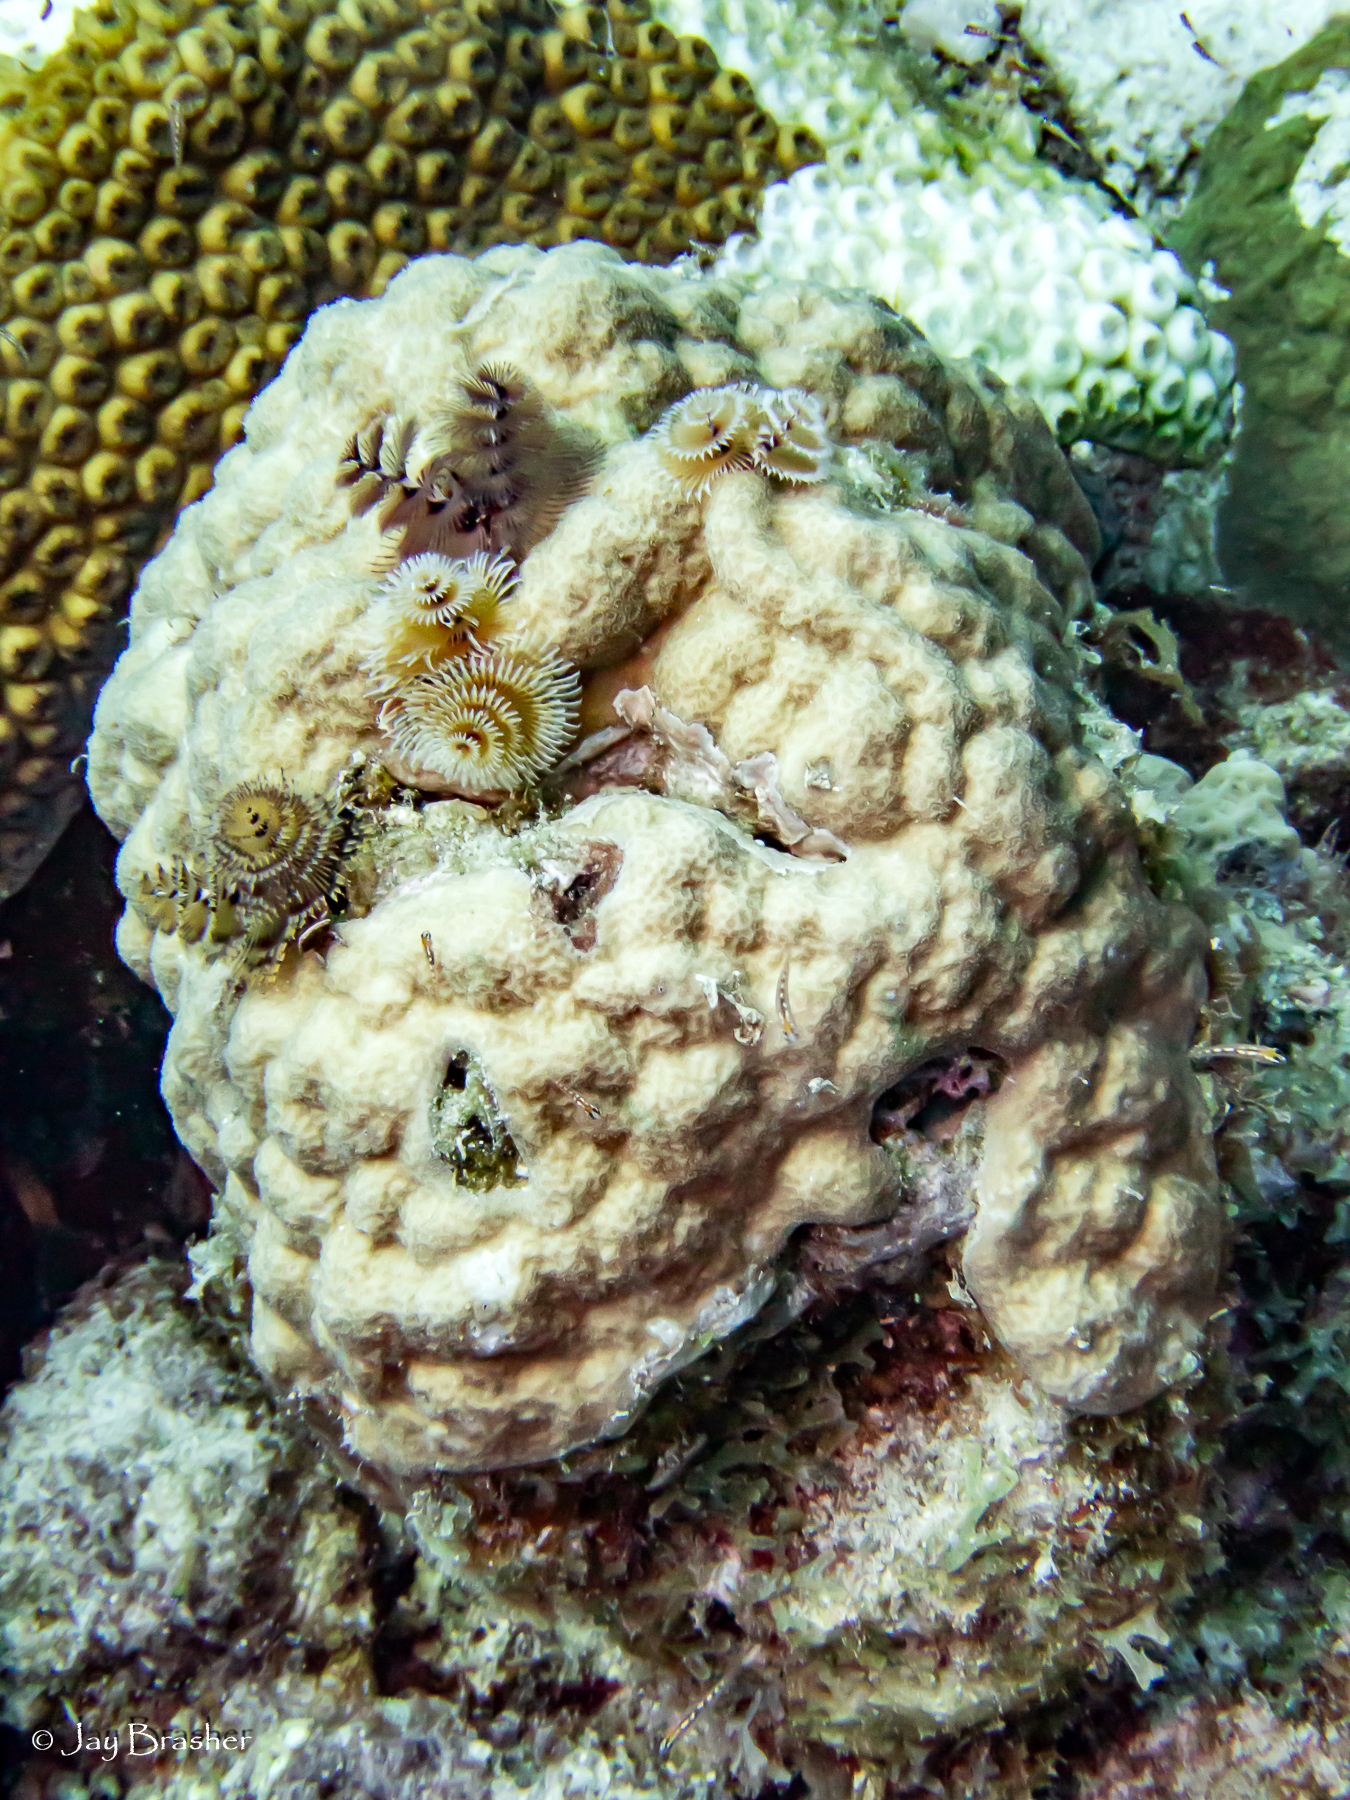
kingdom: Animalia
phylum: Annelida
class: Polychaeta
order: Sabellida
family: Serpulidae
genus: Spirobranchus
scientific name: Spirobranchus giganteus
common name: Christmas tree worm
